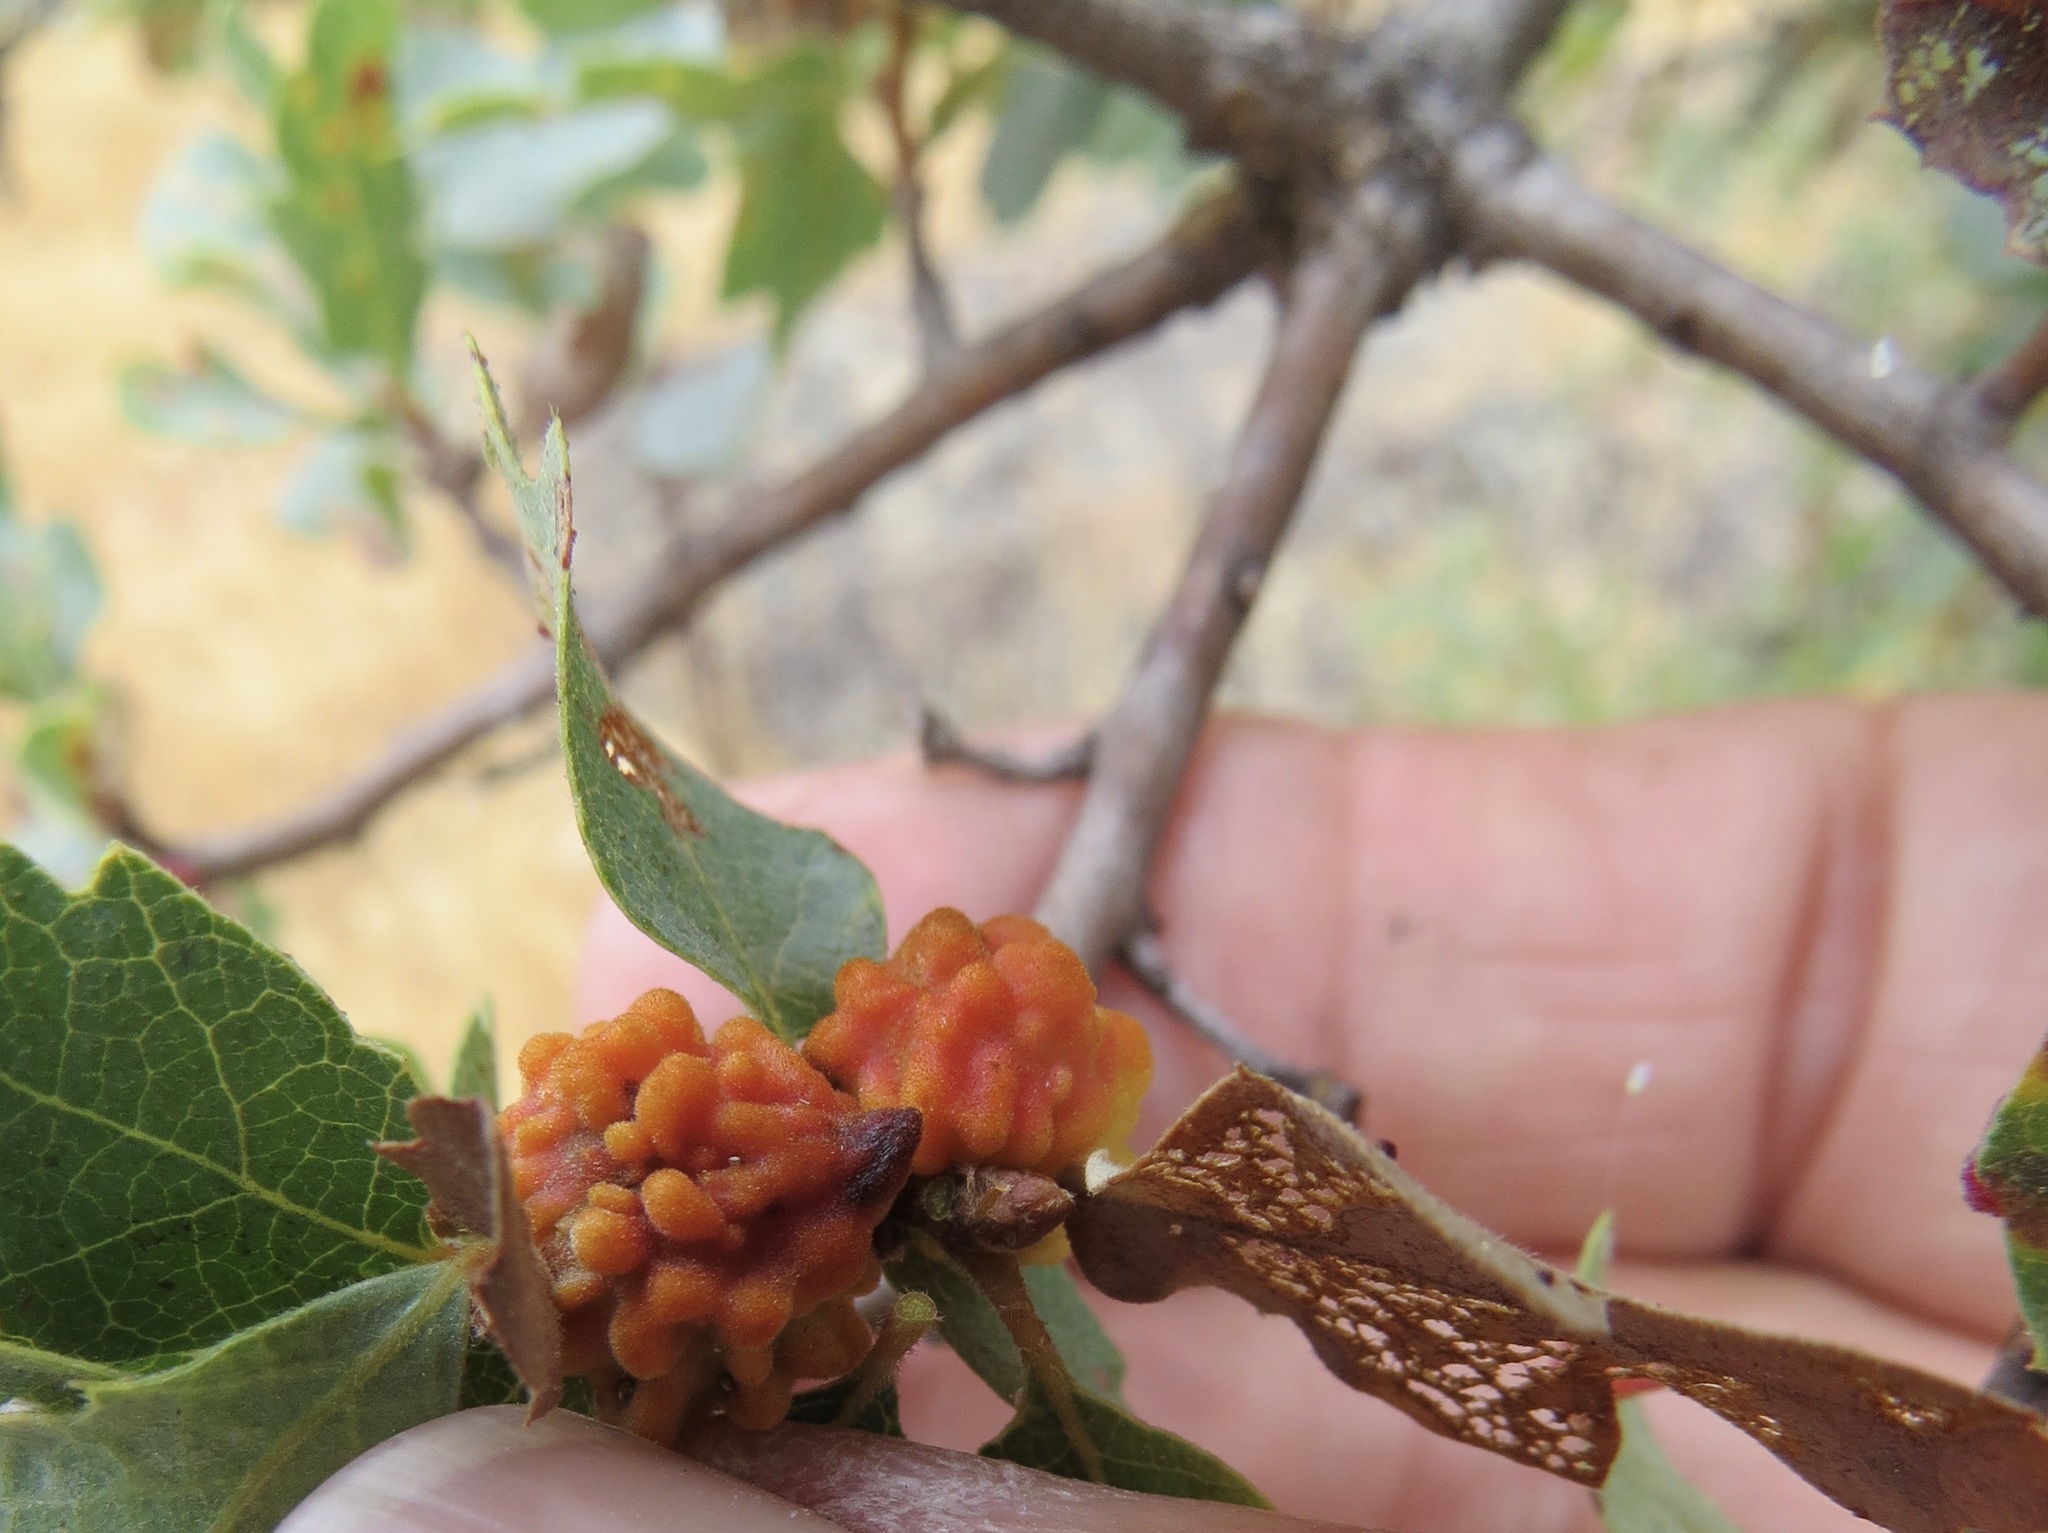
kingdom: Animalia
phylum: Arthropoda
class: Insecta
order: Hymenoptera
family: Cynipidae
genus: Burnettweldia
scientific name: Burnettweldia
